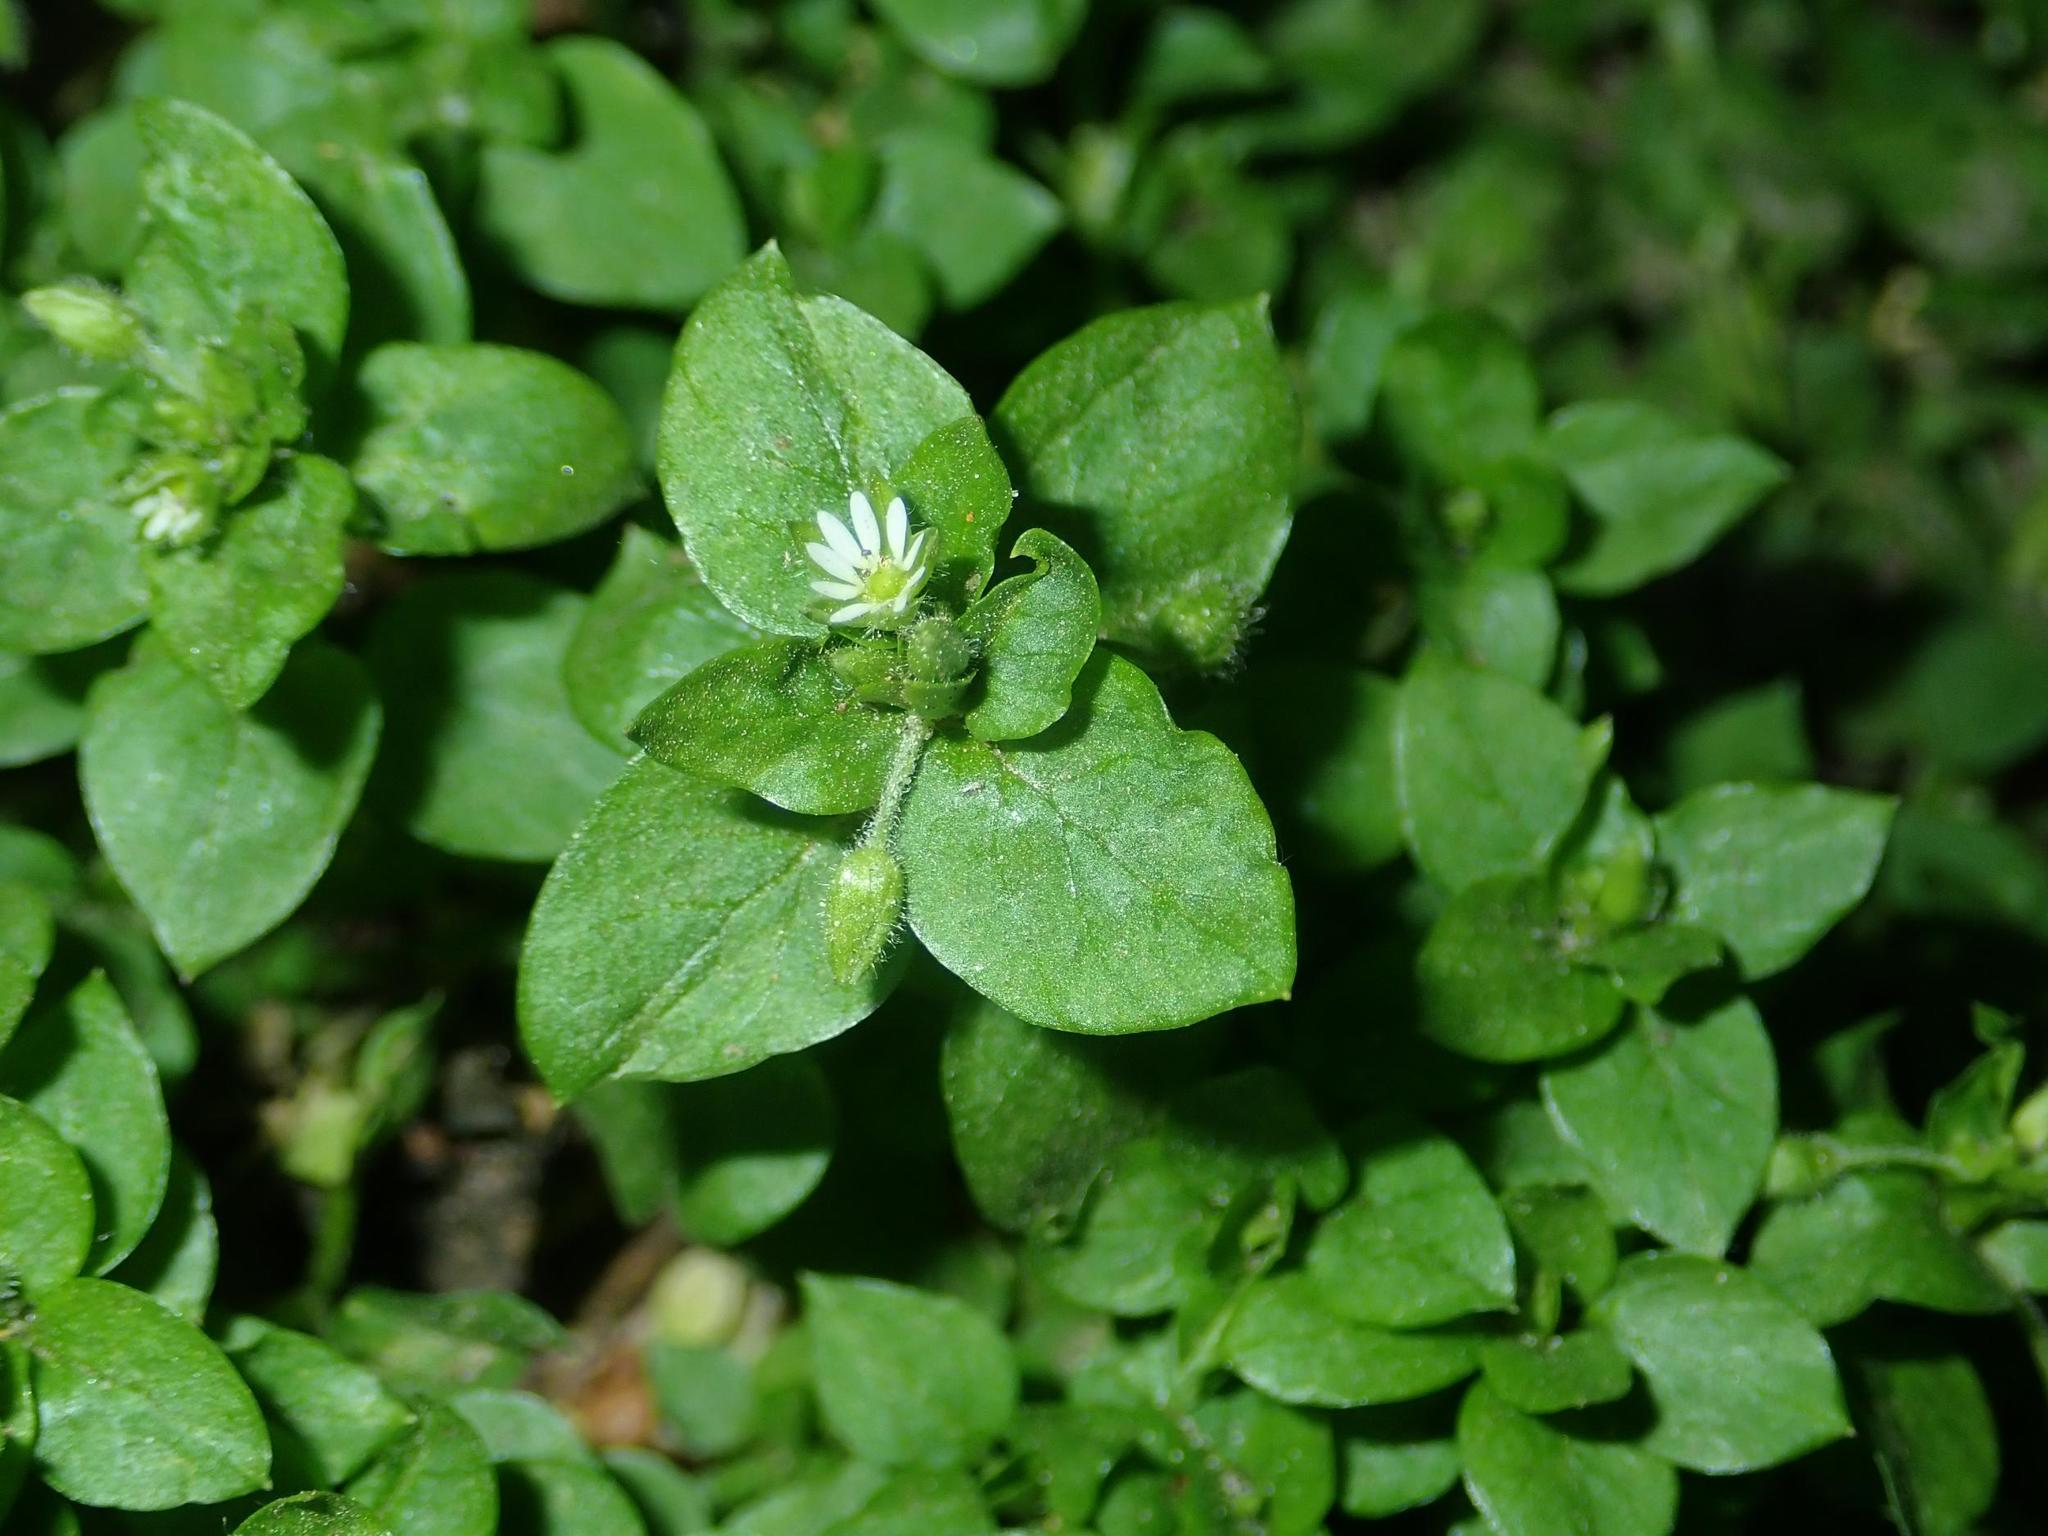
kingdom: Plantae
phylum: Tracheophyta
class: Magnoliopsida
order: Caryophyllales
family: Caryophyllaceae
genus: Stellaria
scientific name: Stellaria media
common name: Common chickweed
